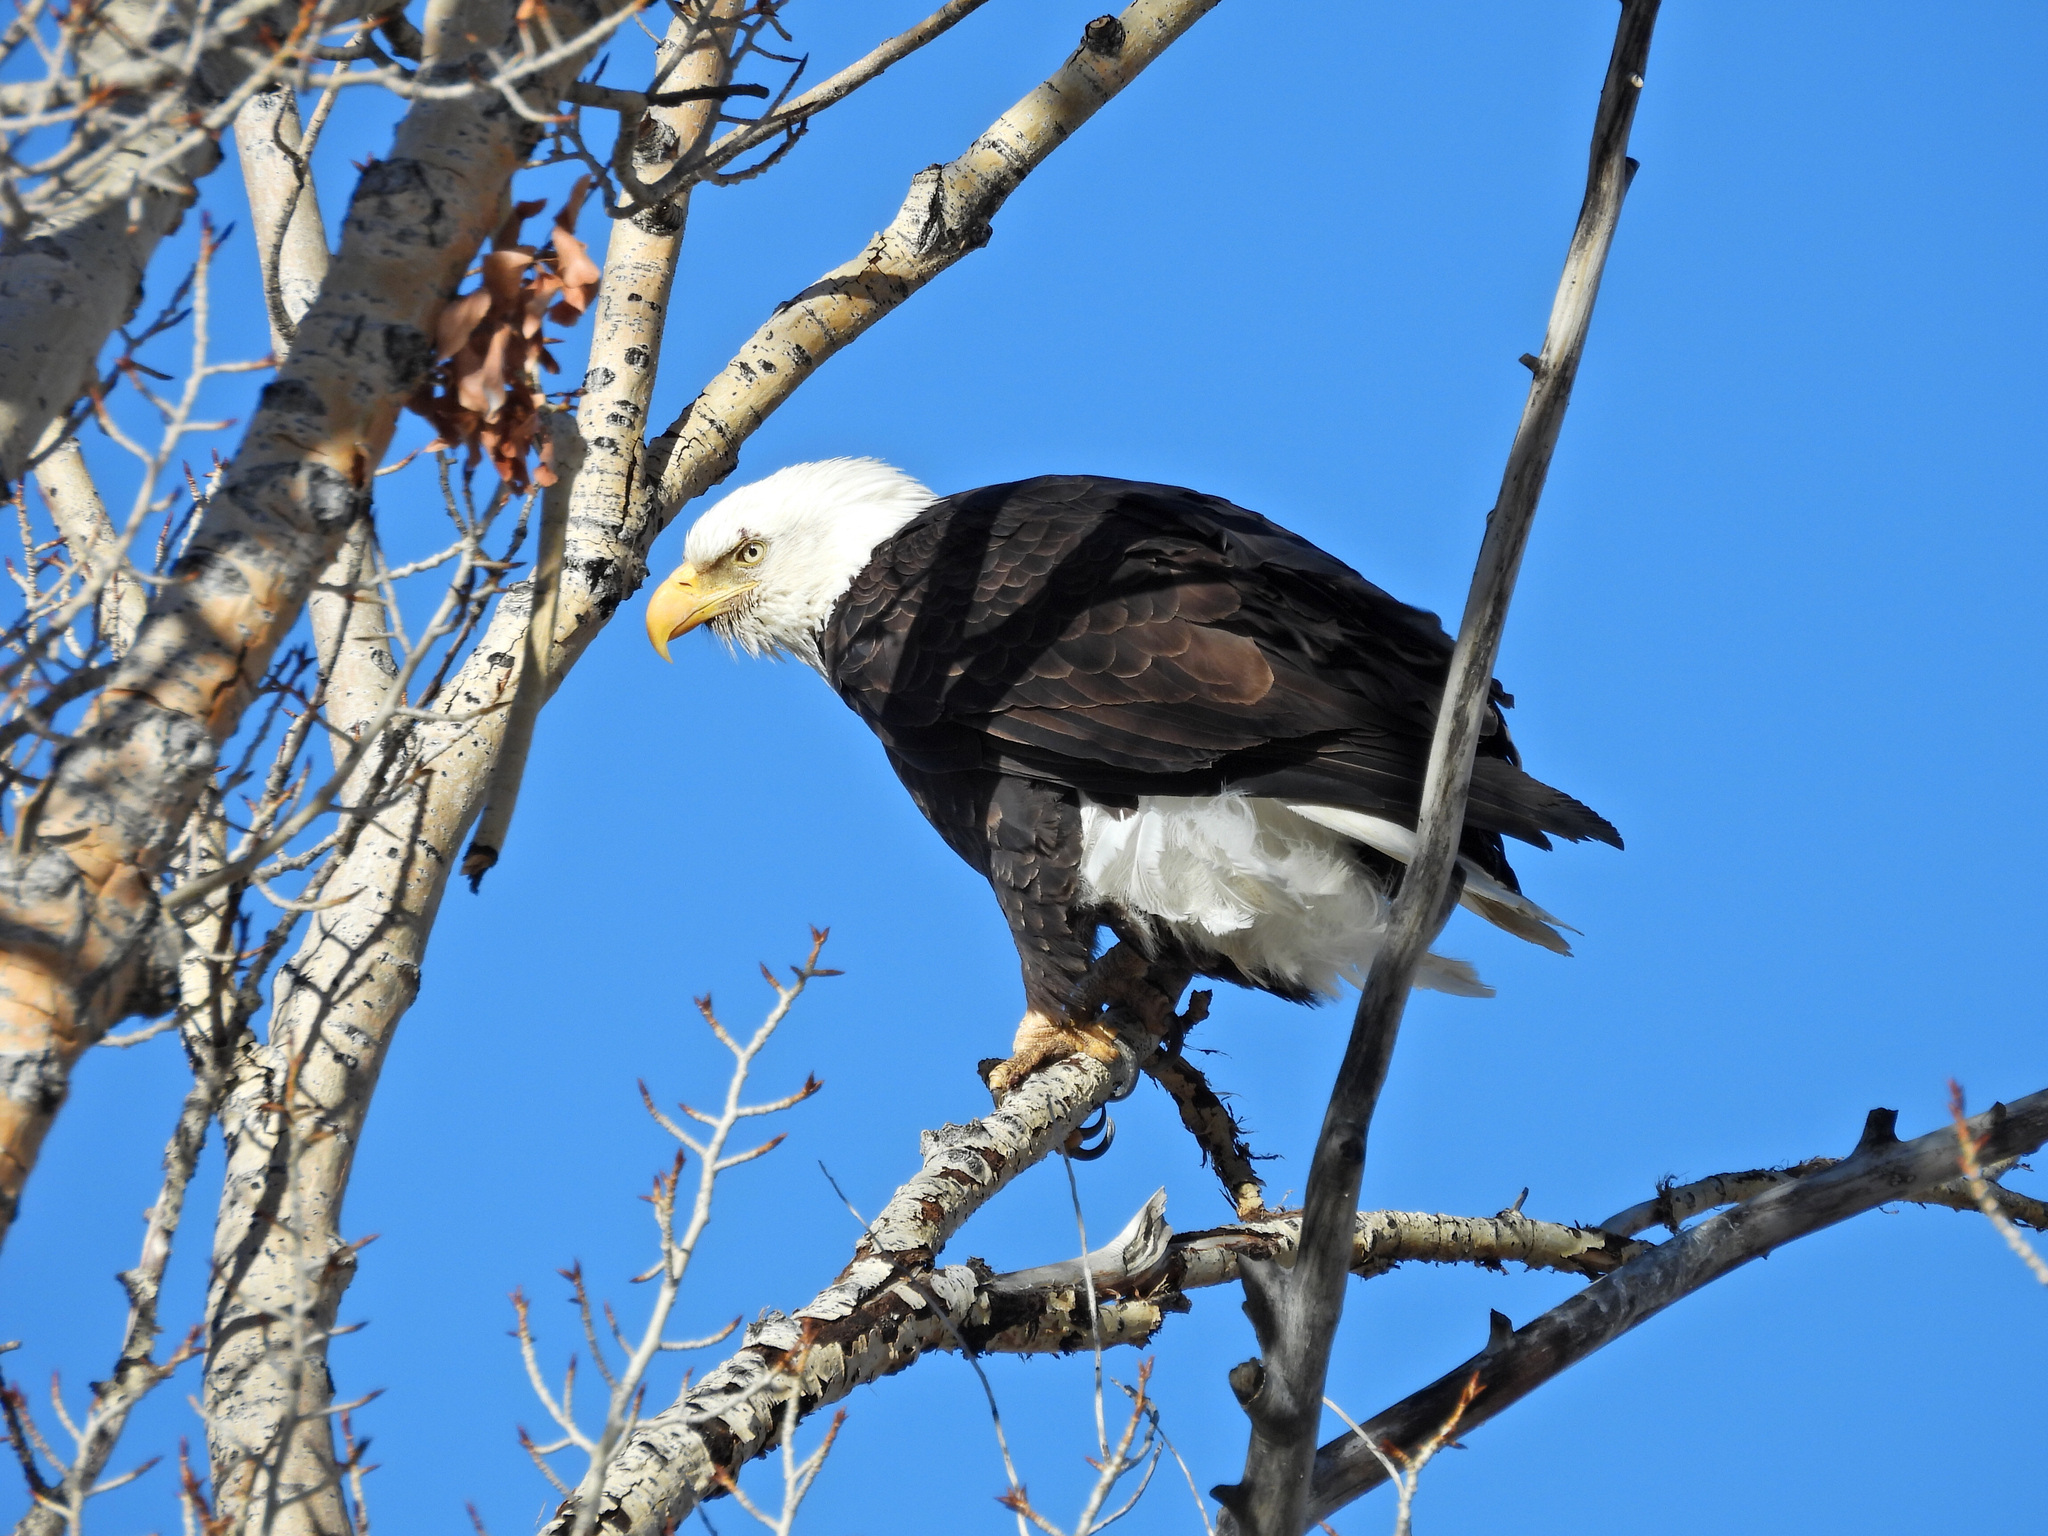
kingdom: Animalia
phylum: Chordata
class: Aves
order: Accipitriformes
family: Accipitridae
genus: Haliaeetus
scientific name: Haliaeetus leucocephalus
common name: Bald eagle
